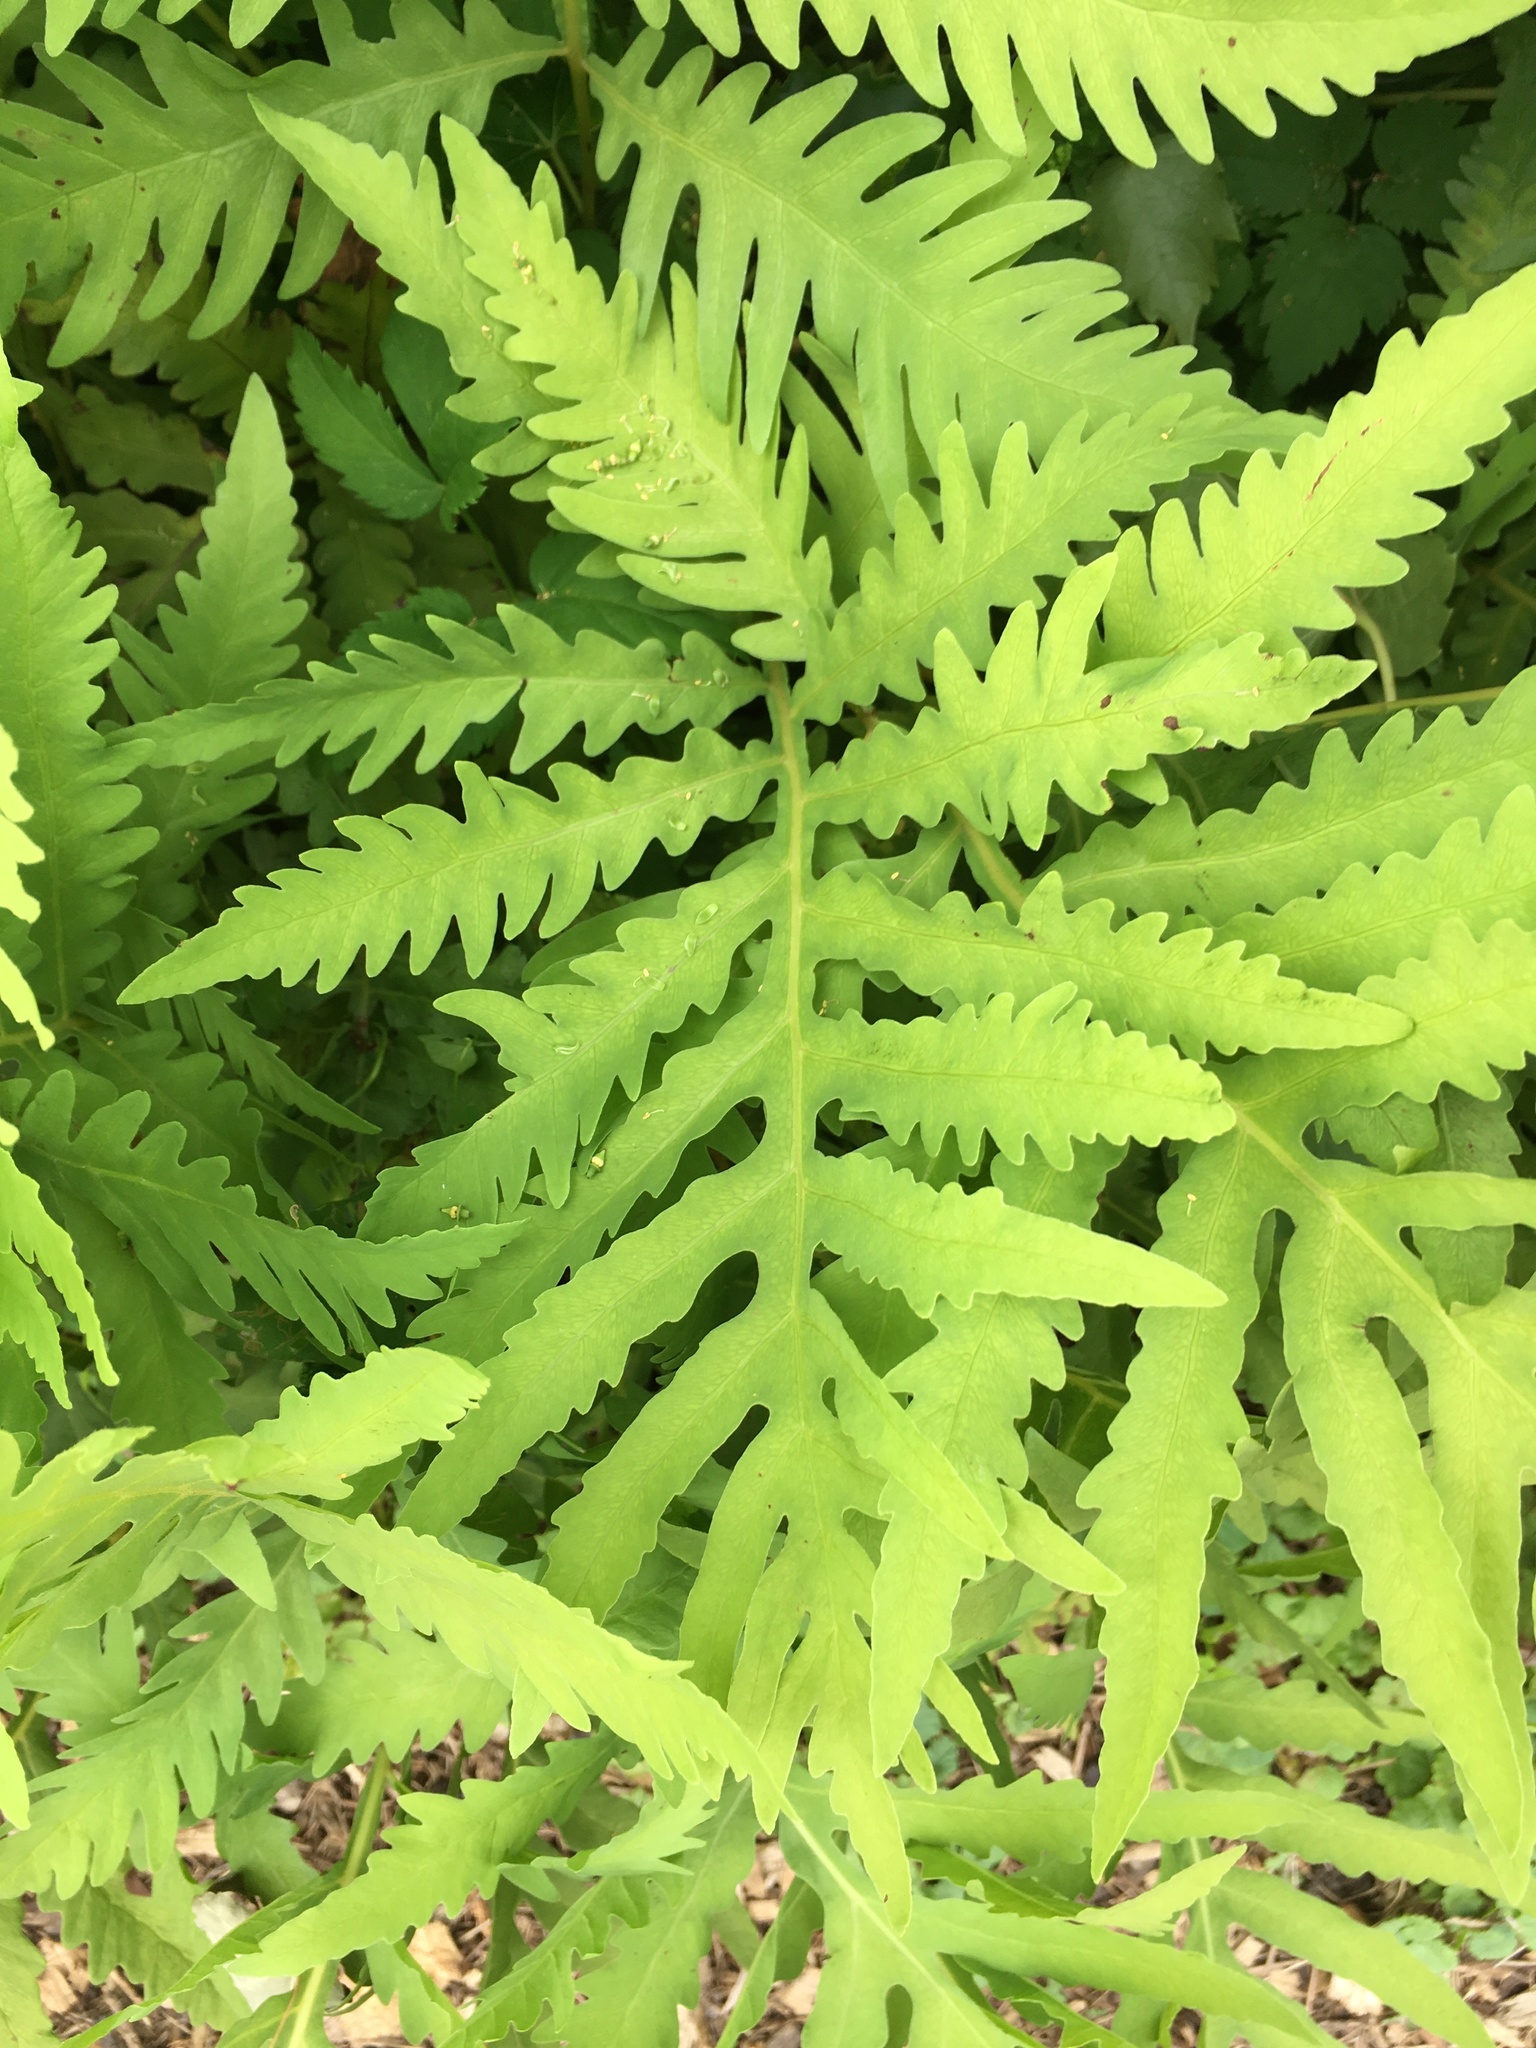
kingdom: Plantae
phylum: Tracheophyta
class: Polypodiopsida
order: Polypodiales
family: Onocleaceae
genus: Onoclea
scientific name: Onoclea sensibilis
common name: Sensitive fern
